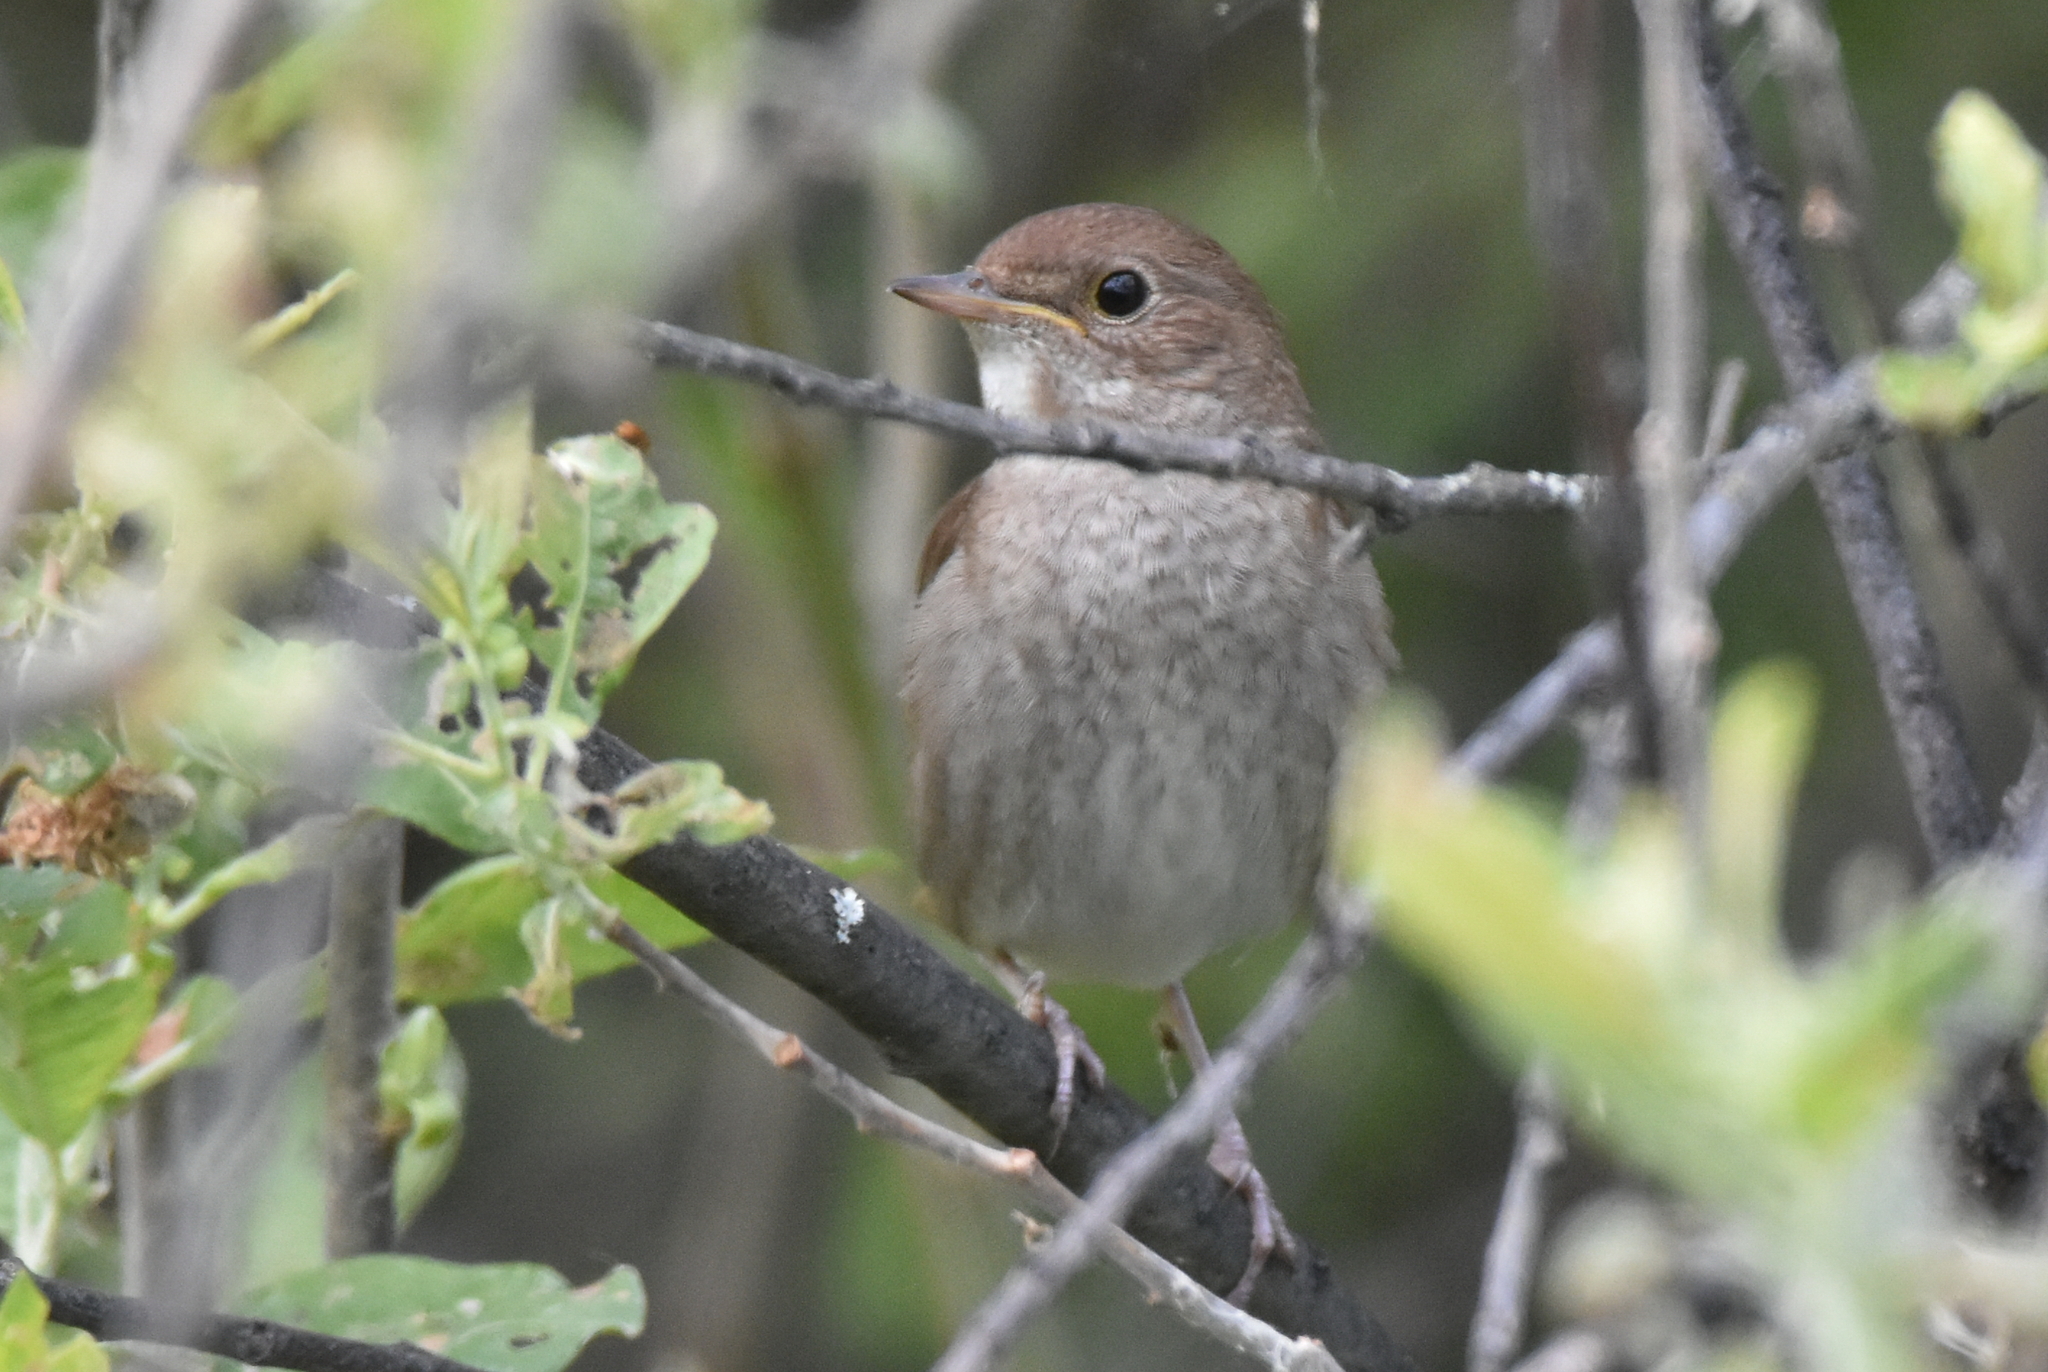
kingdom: Animalia
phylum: Chordata
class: Aves
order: Passeriformes
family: Muscicapidae
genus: Luscinia
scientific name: Luscinia luscinia
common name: Thrush nightingale
